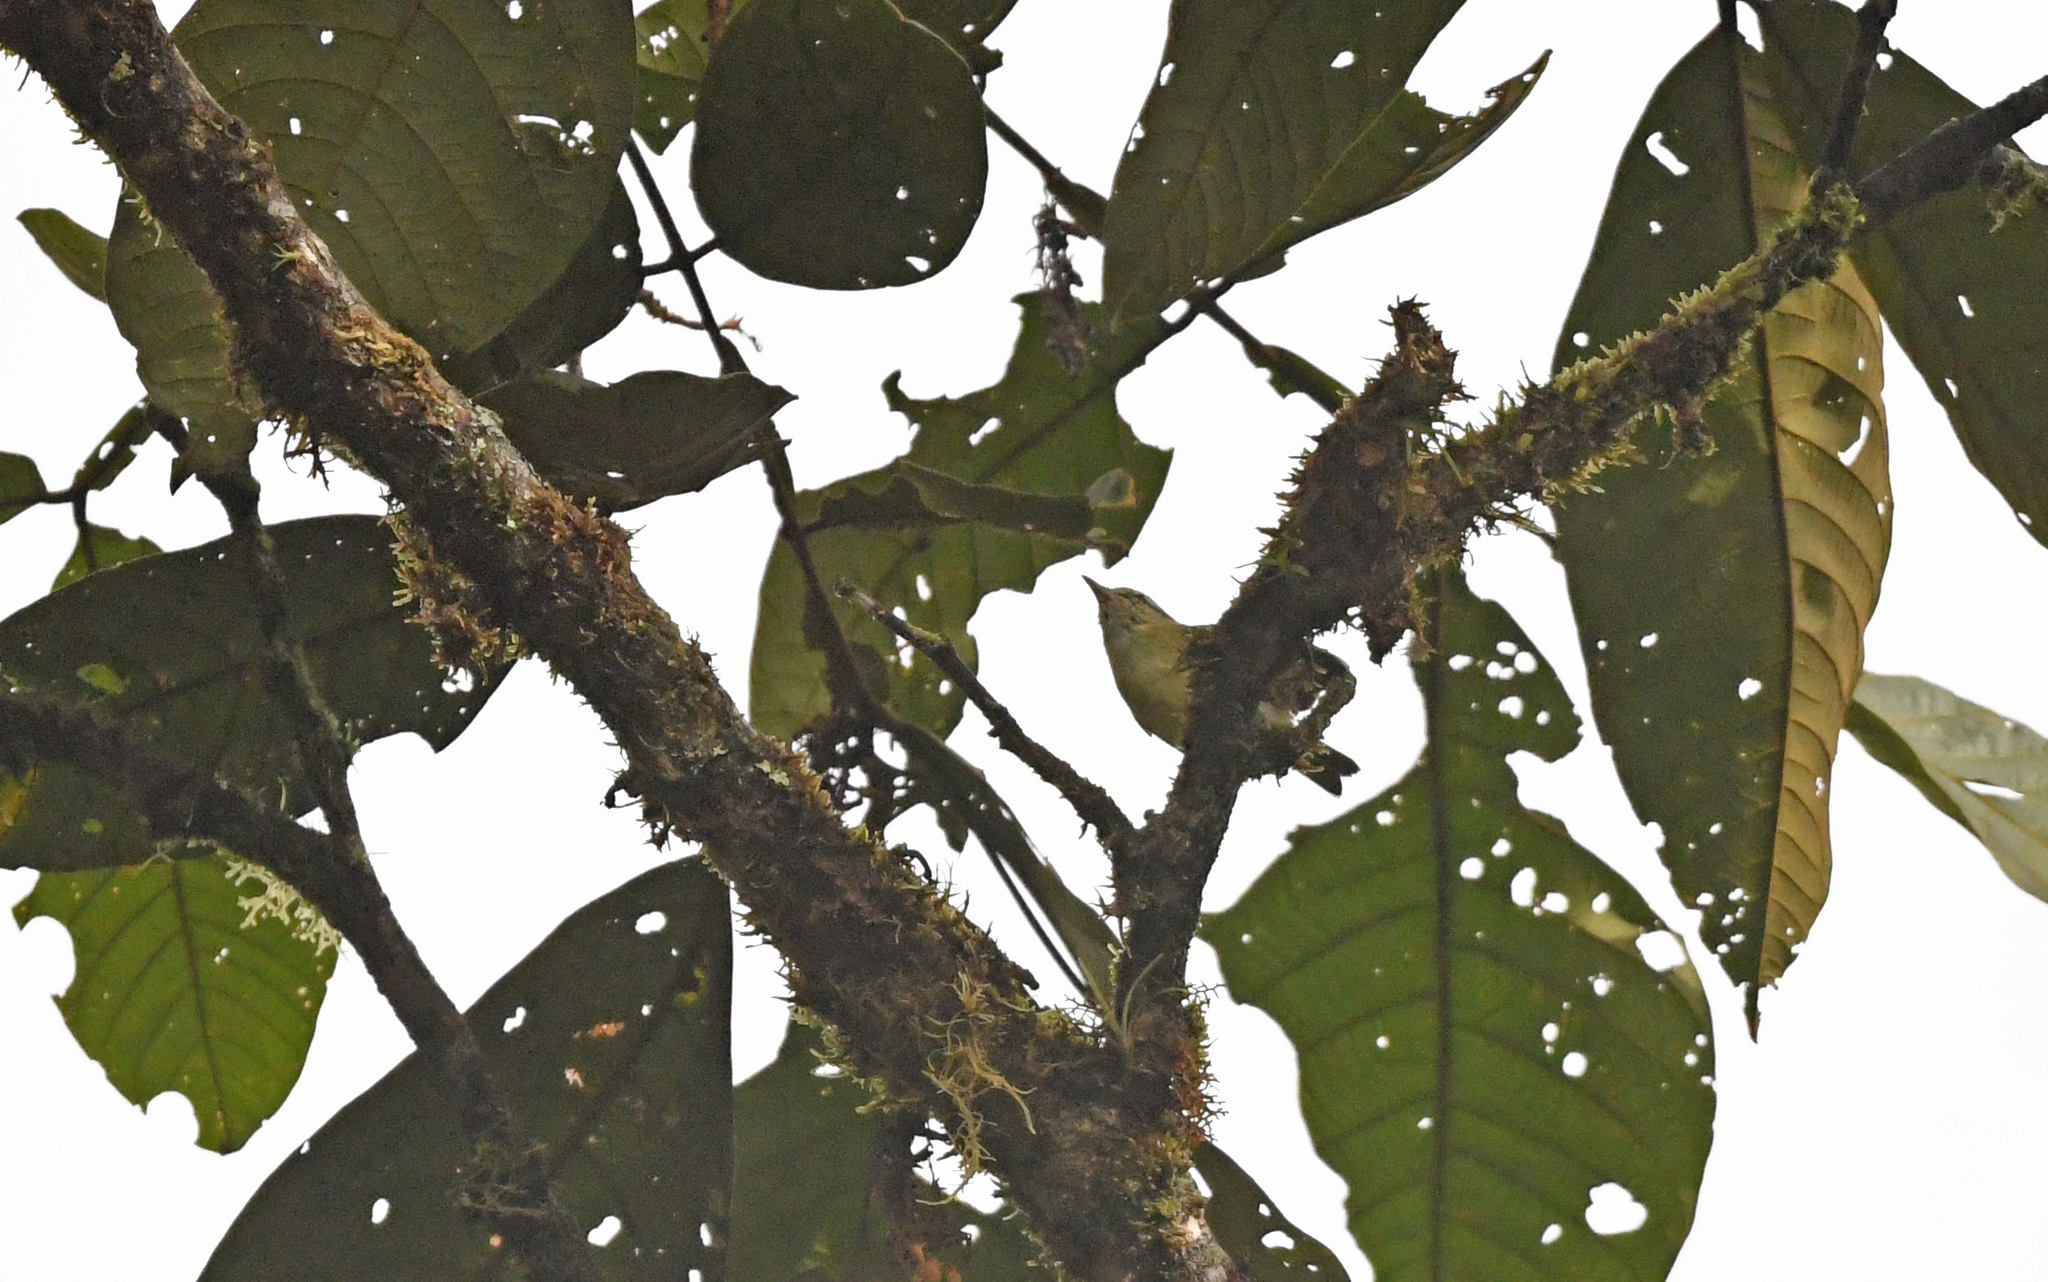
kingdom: Animalia
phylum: Chordata
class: Aves
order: Passeriformes
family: Thamnophilidae
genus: Herpsilochmus
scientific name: Herpsilochmus axillaris
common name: Yellow-breasted antwren
